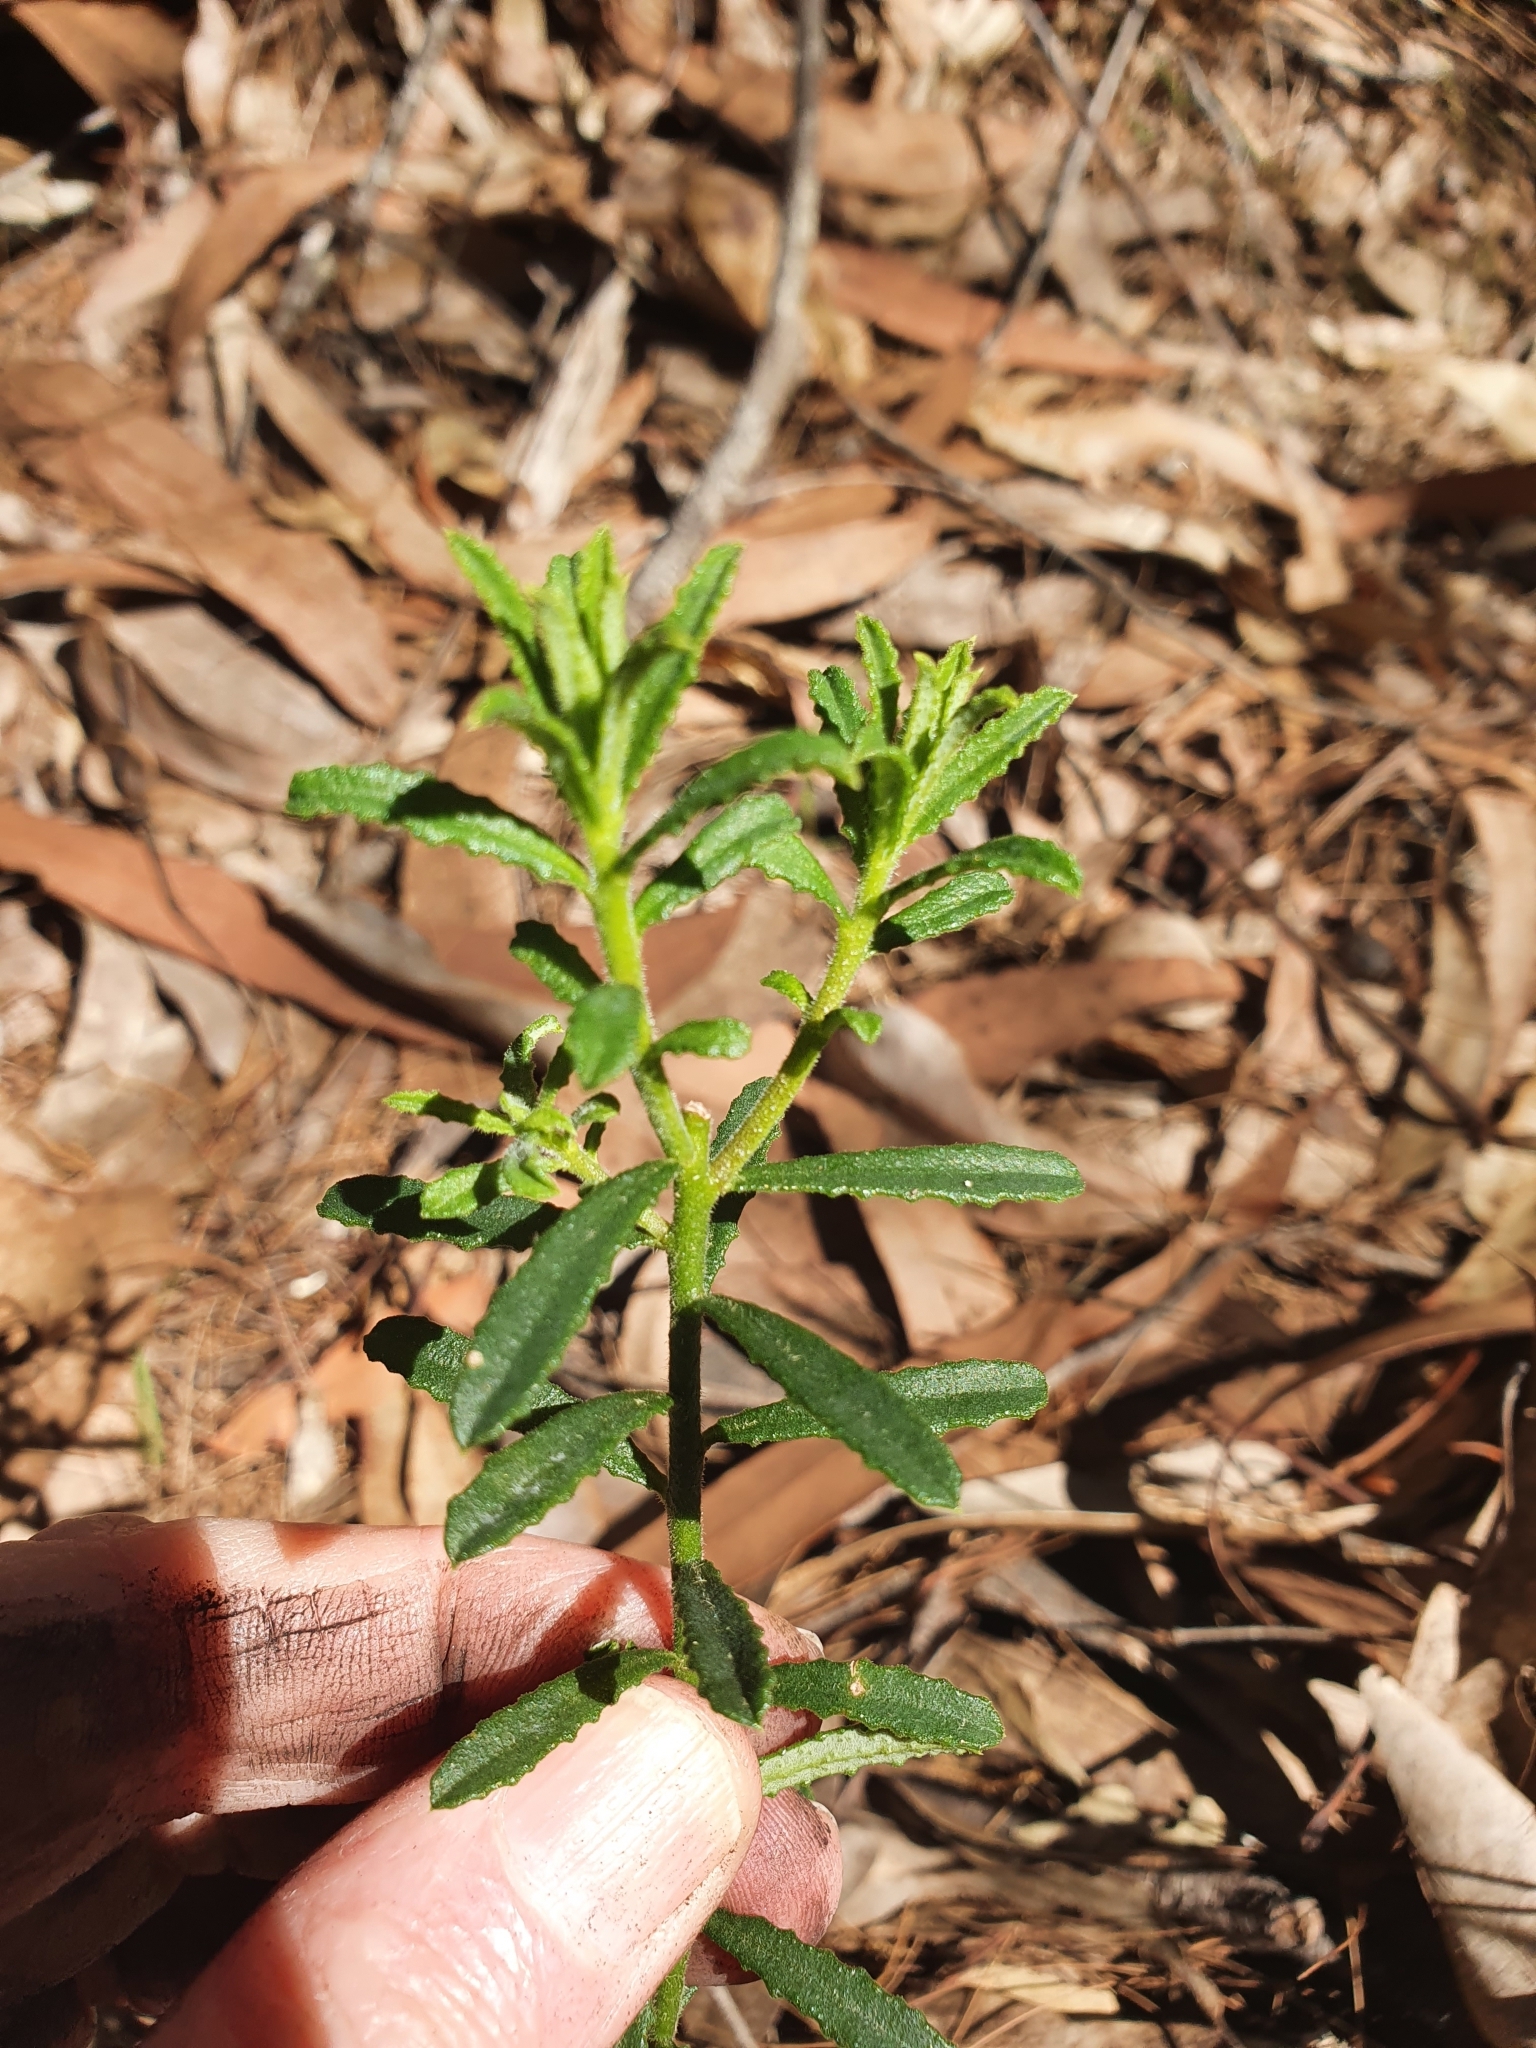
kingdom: Plantae
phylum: Tracheophyta
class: Magnoliopsida
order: Sapindales
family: Rutaceae
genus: Philotheca
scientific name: Philotheca hispidula
